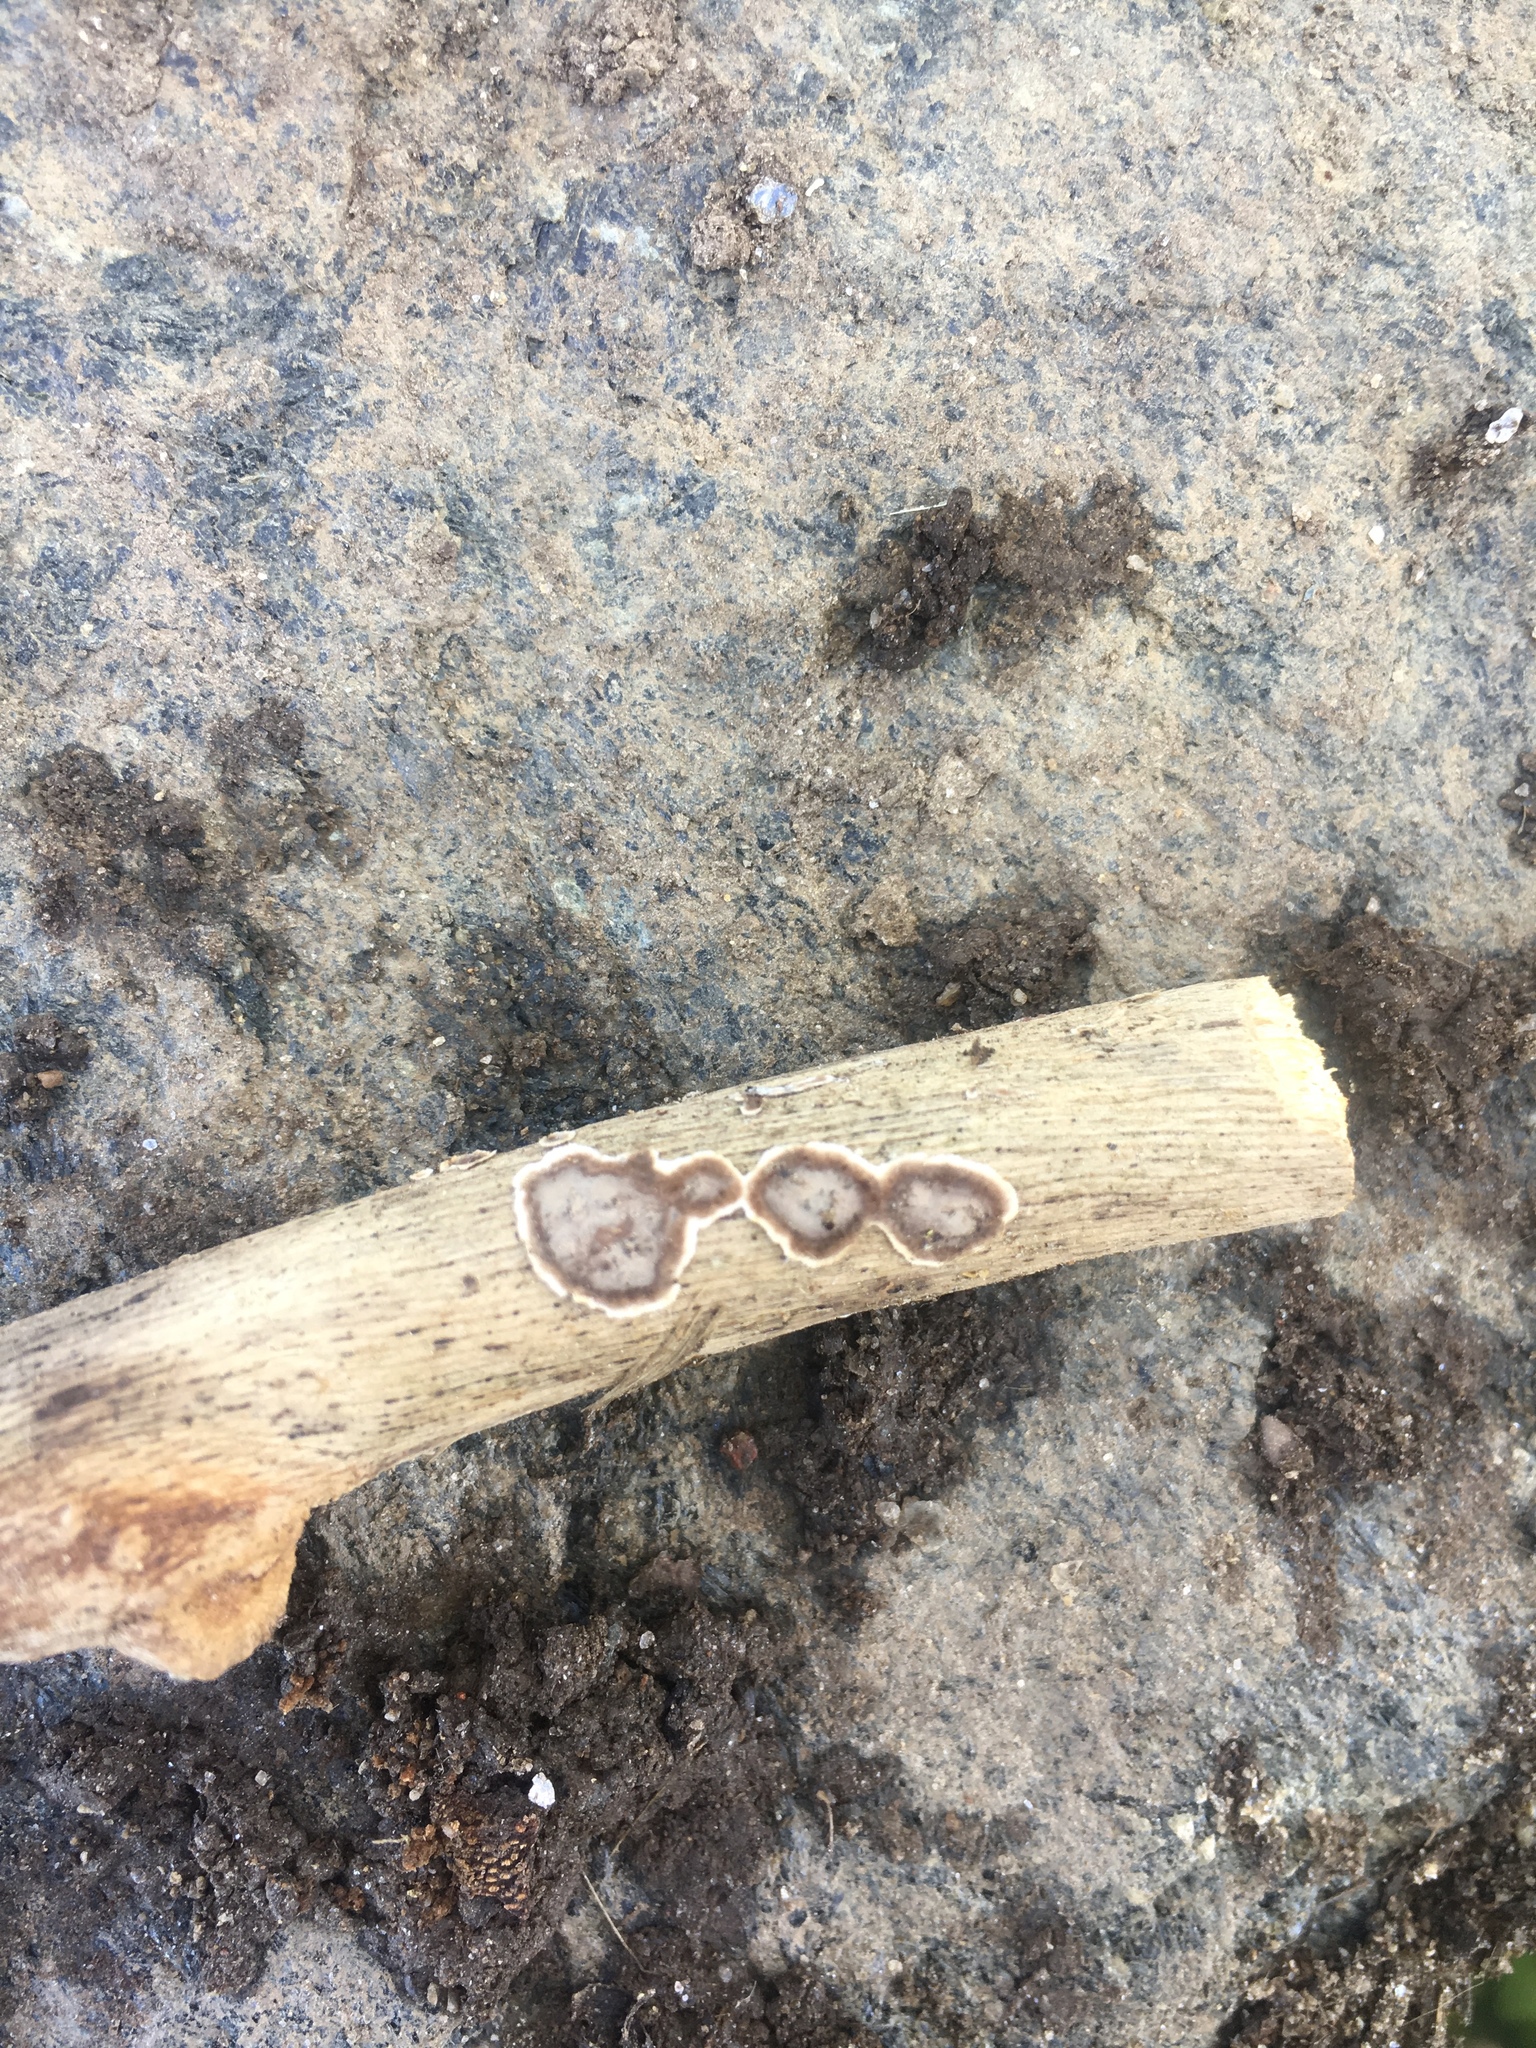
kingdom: Fungi
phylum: Basidiomycota
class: Agaricomycetes
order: Russulales
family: Peniophoraceae
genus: Peniophora
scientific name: Peniophora albobadia
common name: Giraffe spots
